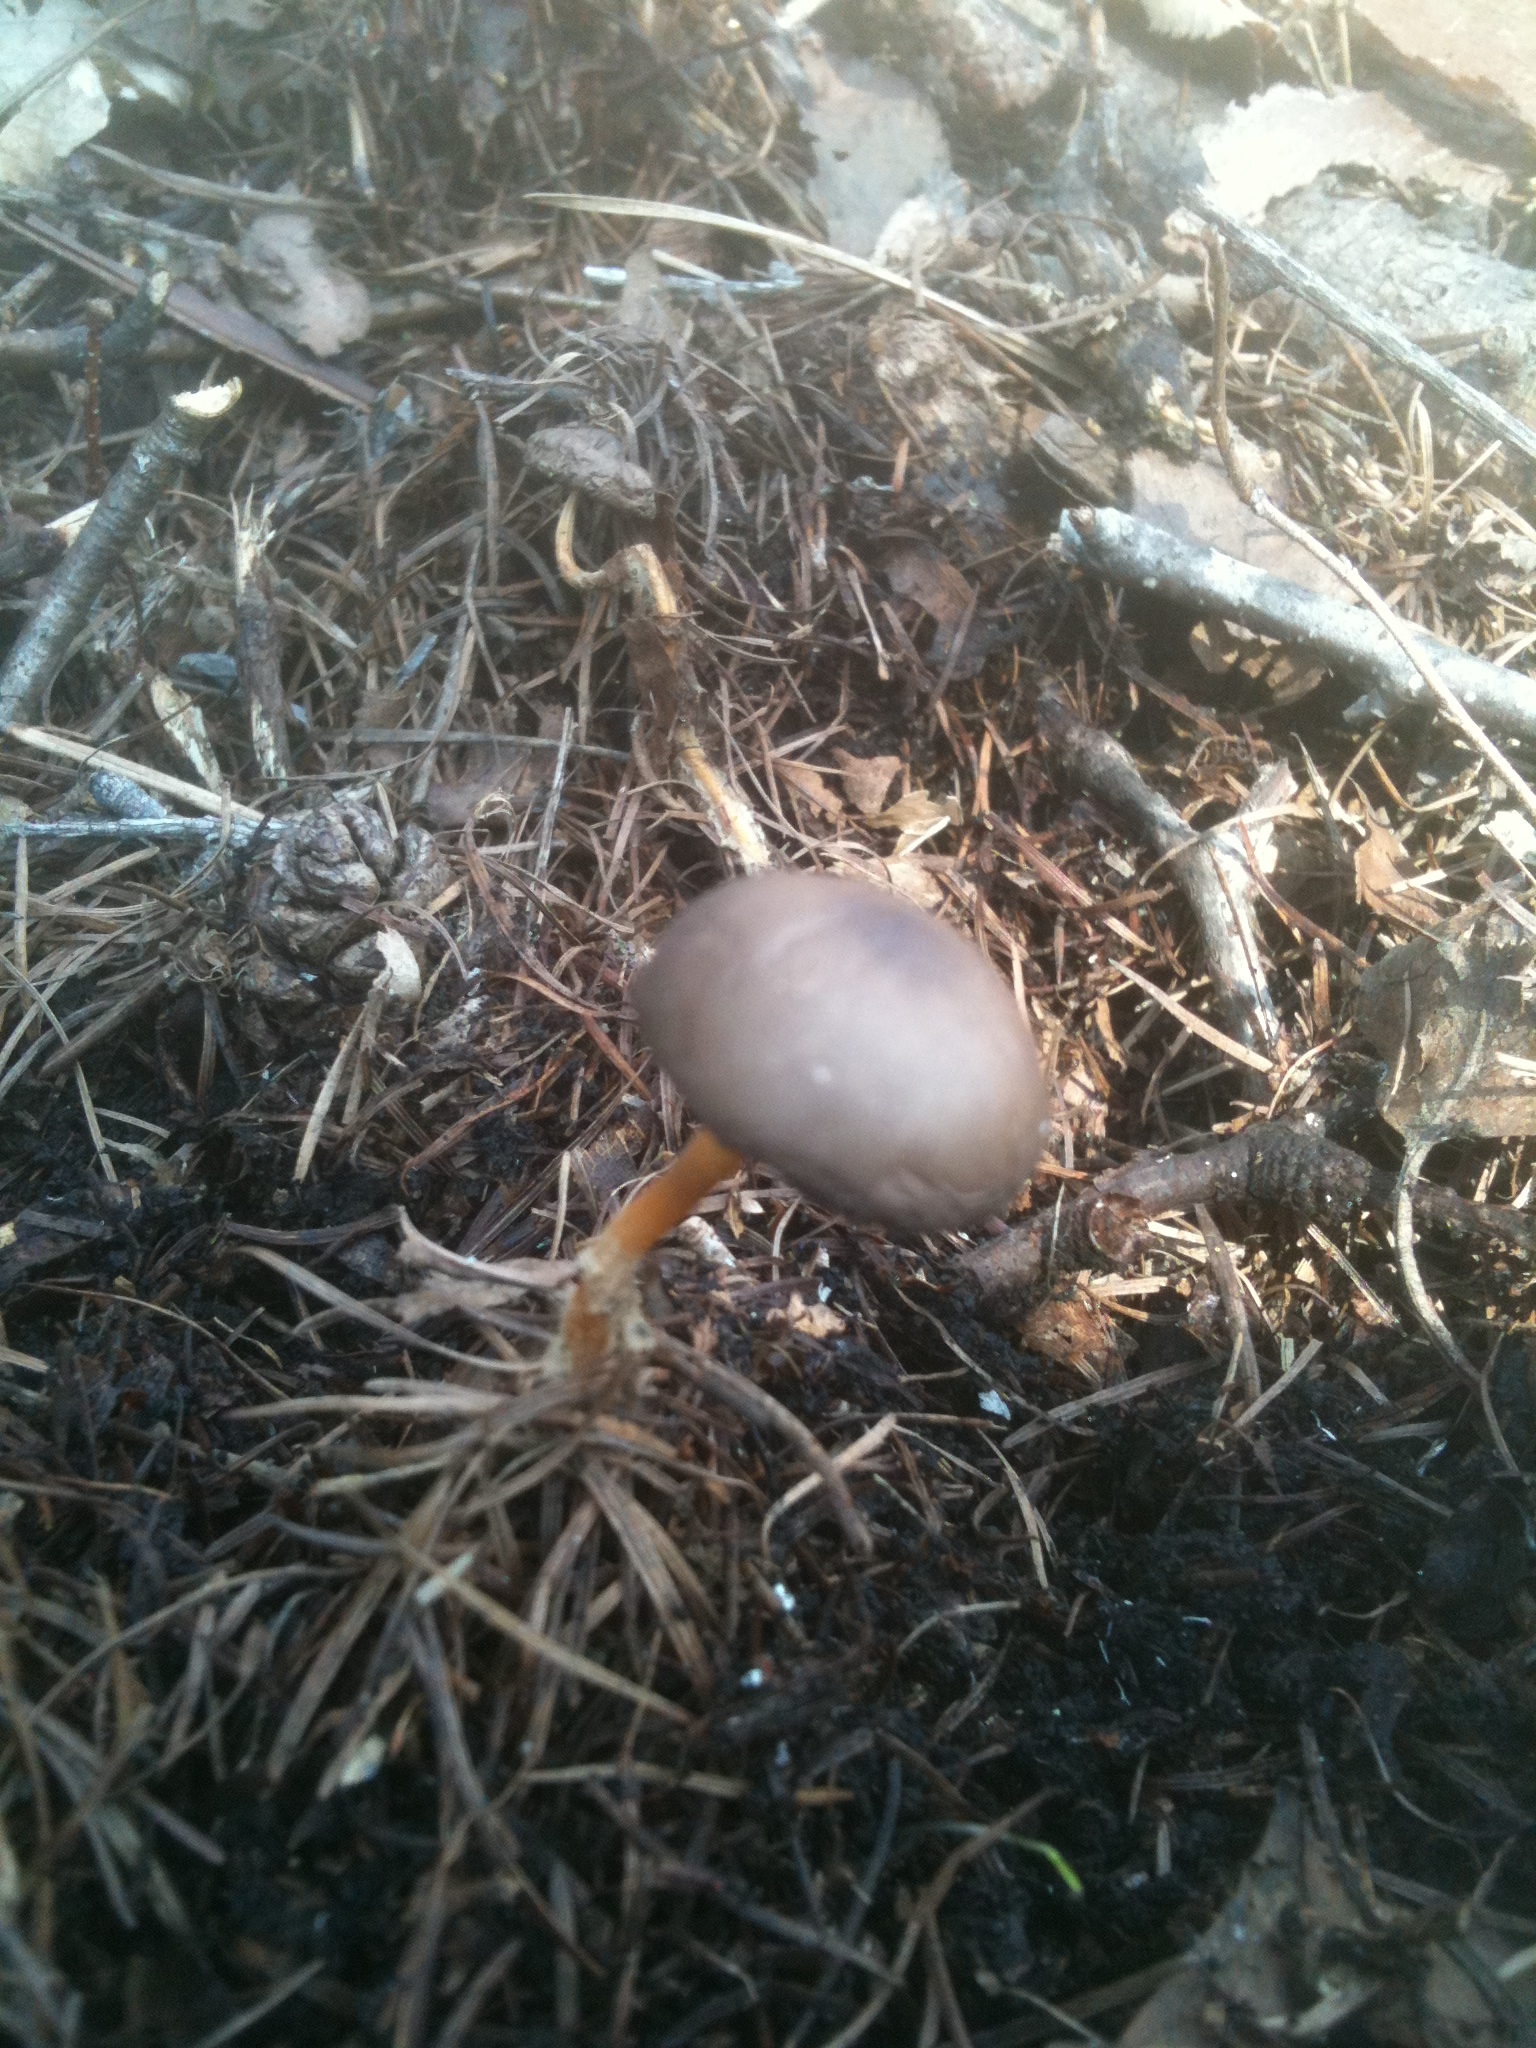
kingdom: Fungi
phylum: Basidiomycota
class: Agaricomycetes
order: Agaricales
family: Physalacriaceae
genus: Strobilurus
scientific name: Strobilurus stephanocystis
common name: Russian conecap
